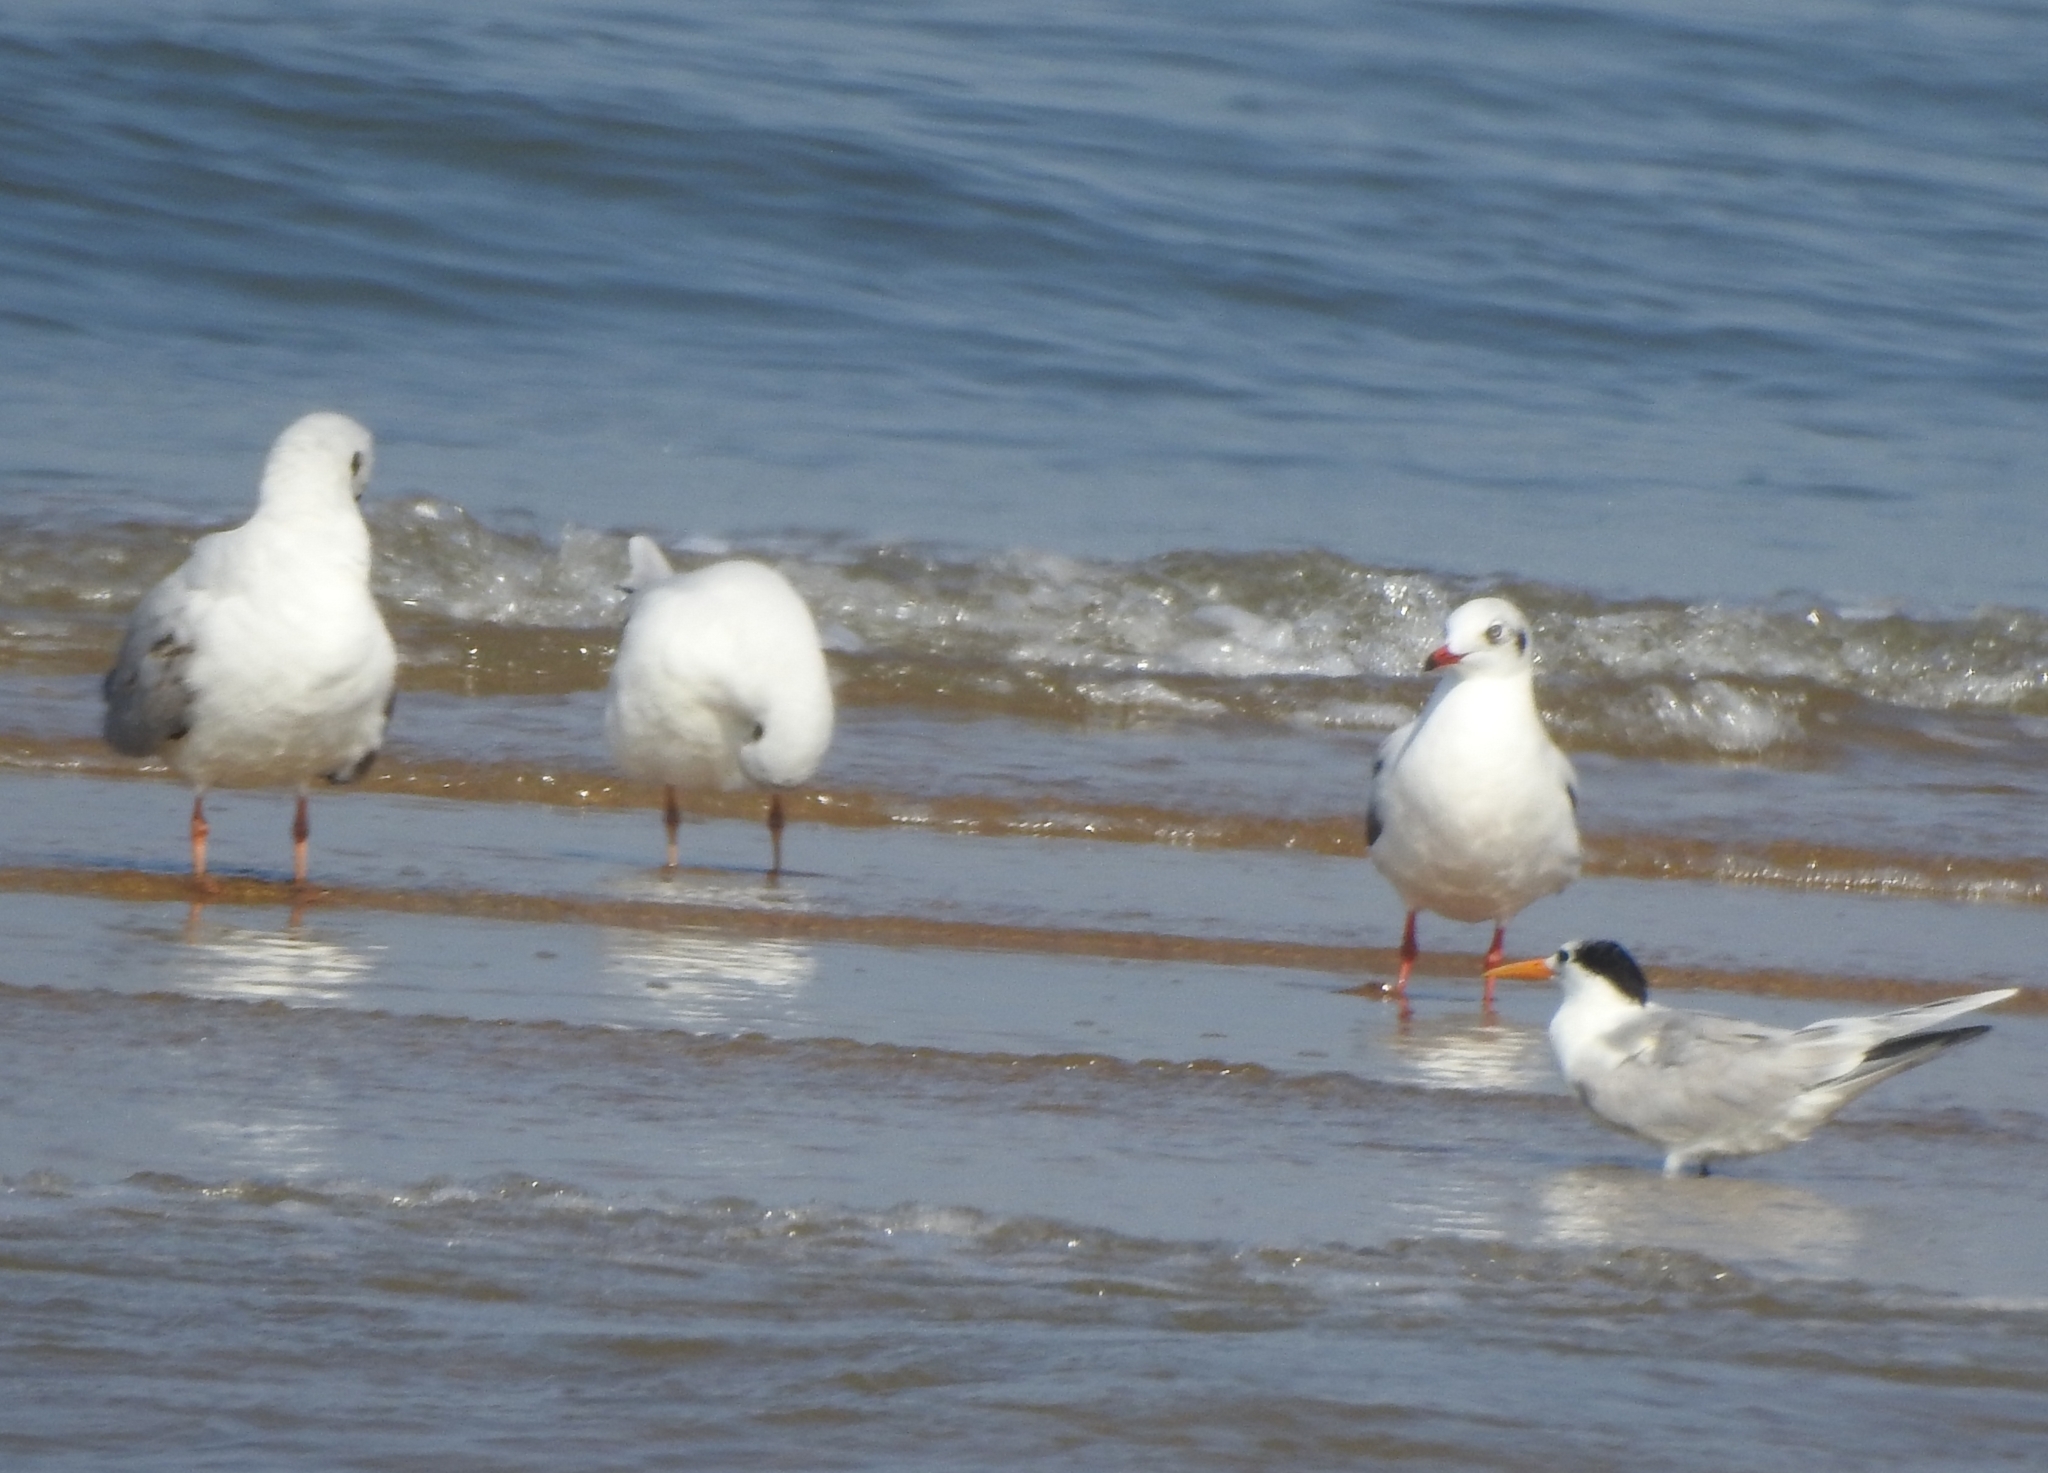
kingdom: Animalia
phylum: Chordata
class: Aves
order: Charadriiformes
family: Laridae
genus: Chroicocephalus
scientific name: Chroicocephalus ridibundus
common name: Black-headed gull
